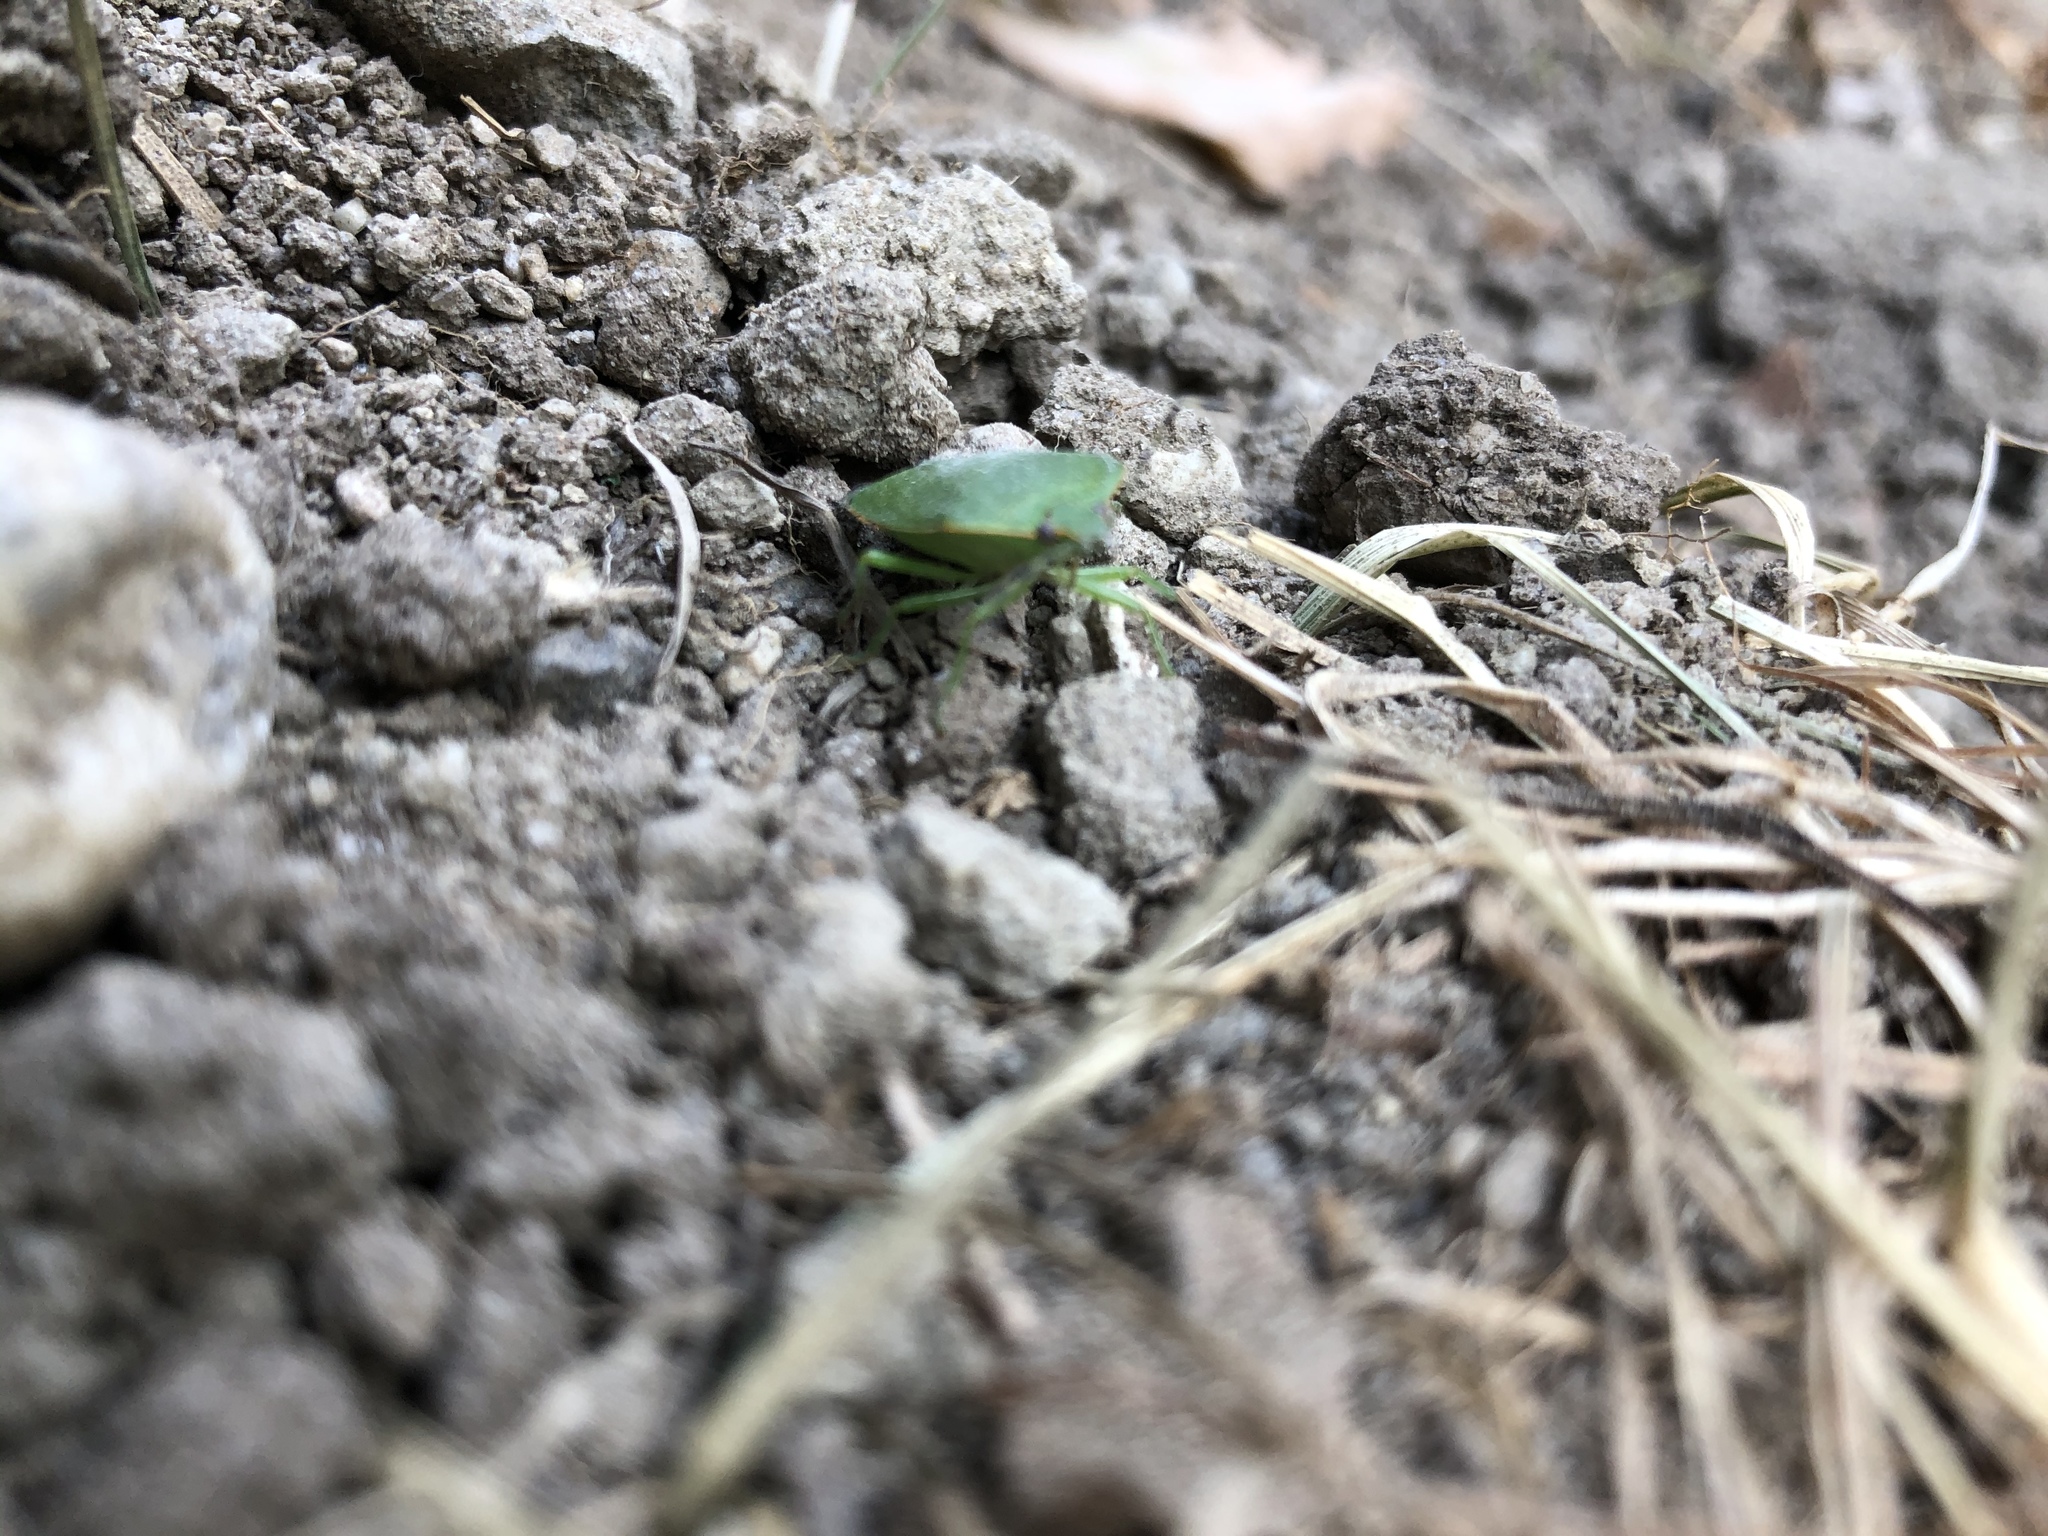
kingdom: Animalia
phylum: Arthropoda
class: Insecta
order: Hemiptera
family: Pentatomidae
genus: Chinavia
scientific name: Chinavia hilaris
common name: Green stink bug
